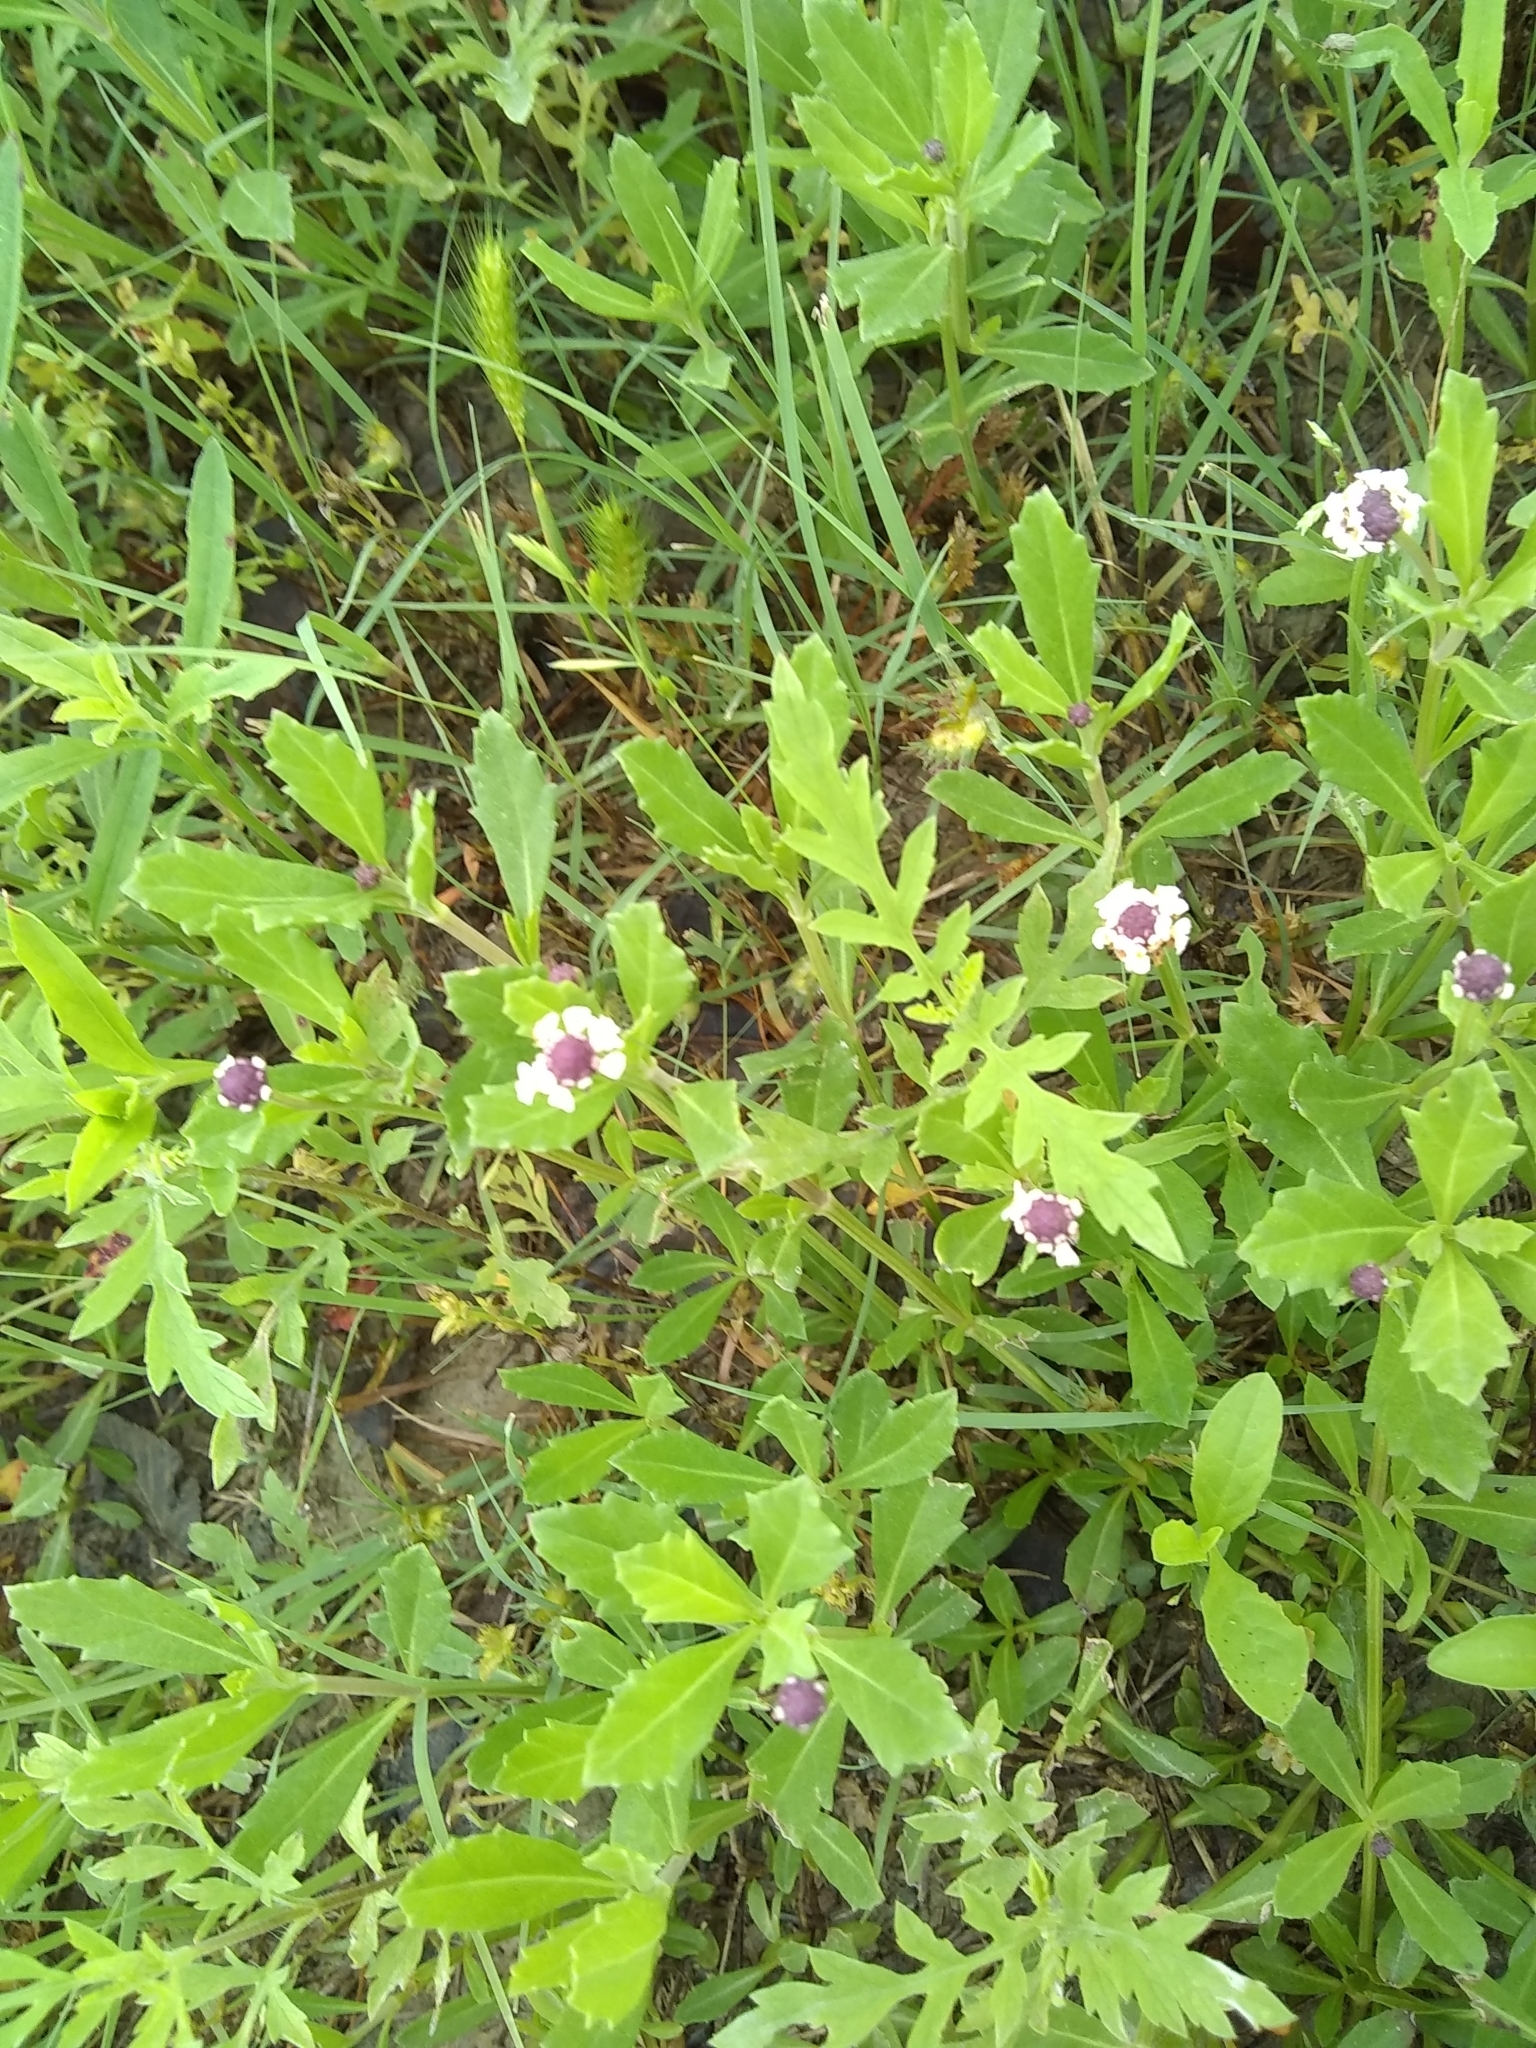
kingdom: Plantae
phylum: Tracheophyta
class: Magnoliopsida
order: Lamiales
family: Verbenaceae
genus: Phyla
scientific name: Phyla nodiflora
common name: Frogfruit
